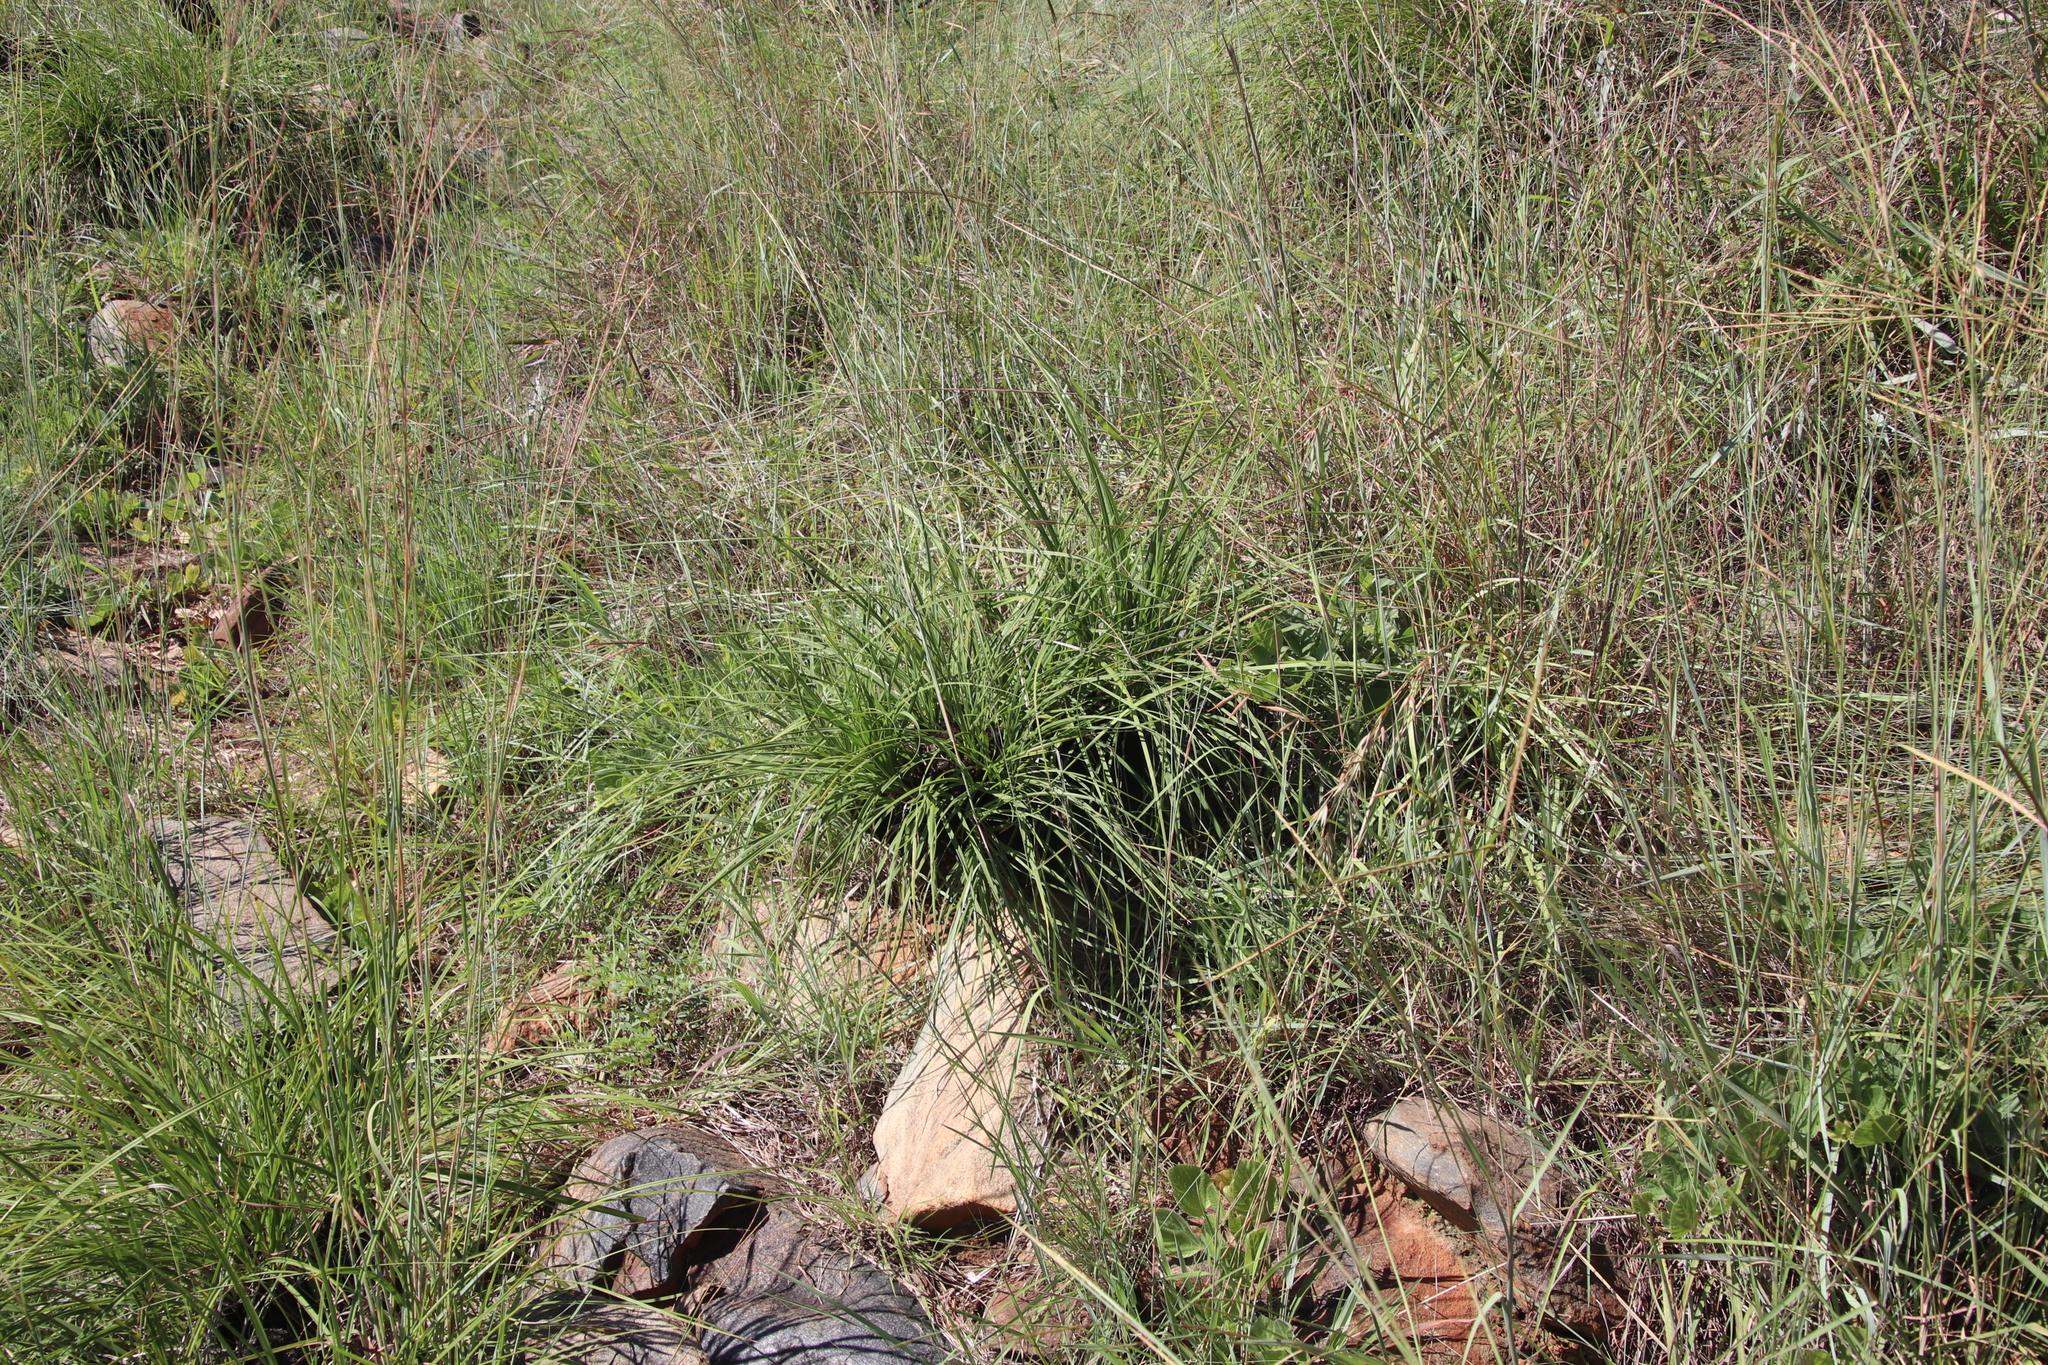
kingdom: Plantae
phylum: Tracheophyta
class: Liliopsida
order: Pandanales
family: Velloziaceae
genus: Xerophyta
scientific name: Xerophyta retinervis
